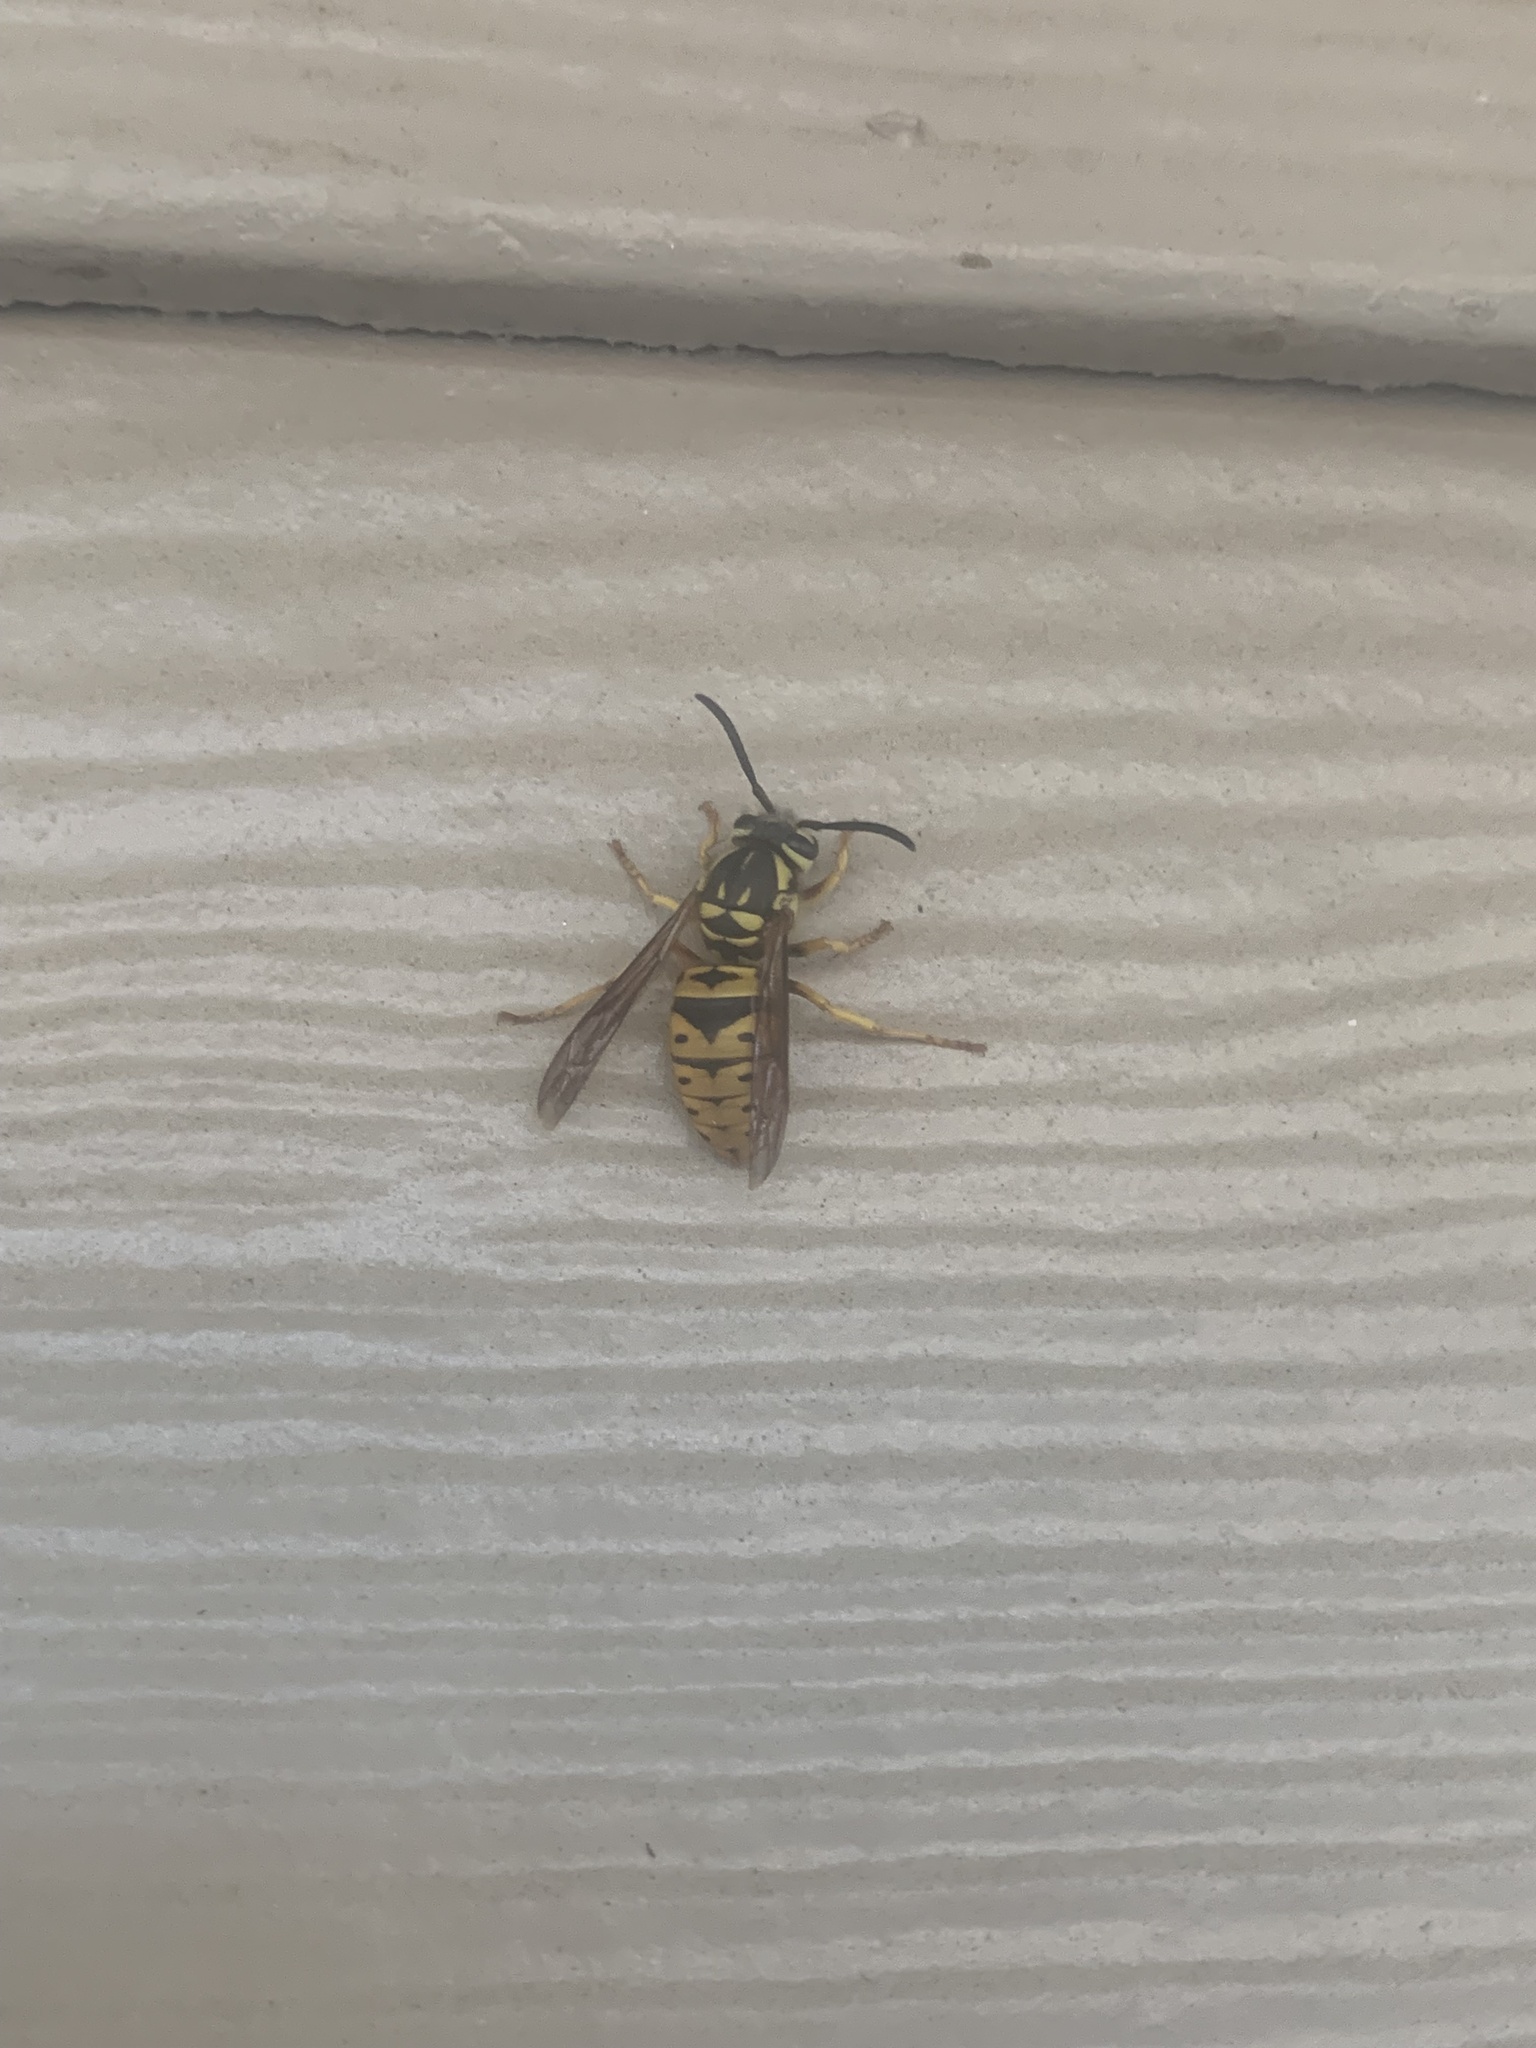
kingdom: Animalia
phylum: Arthropoda
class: Insecta
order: Hymenoptera
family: Vespidae
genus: Vespula
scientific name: Vespula maculifrons
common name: Eastern yellowjacket
